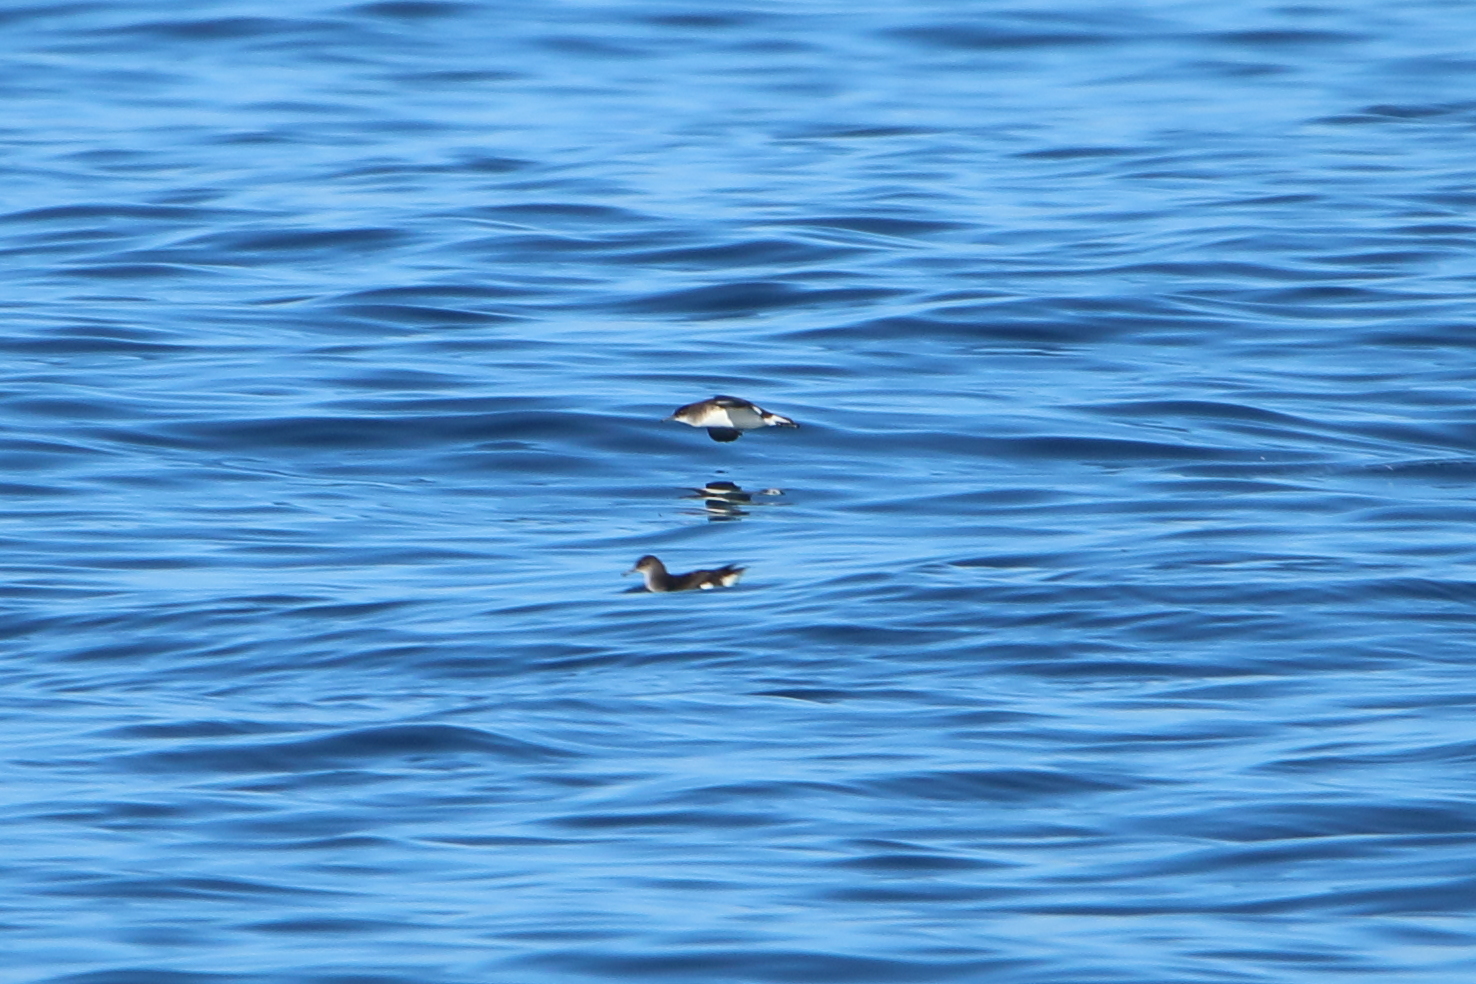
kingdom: Animalia
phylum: Chordata
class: Aves
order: Procellariiformes
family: Procellariidae
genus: Puffinus
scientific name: Puffinus gavia
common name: Fluttering shearwater
